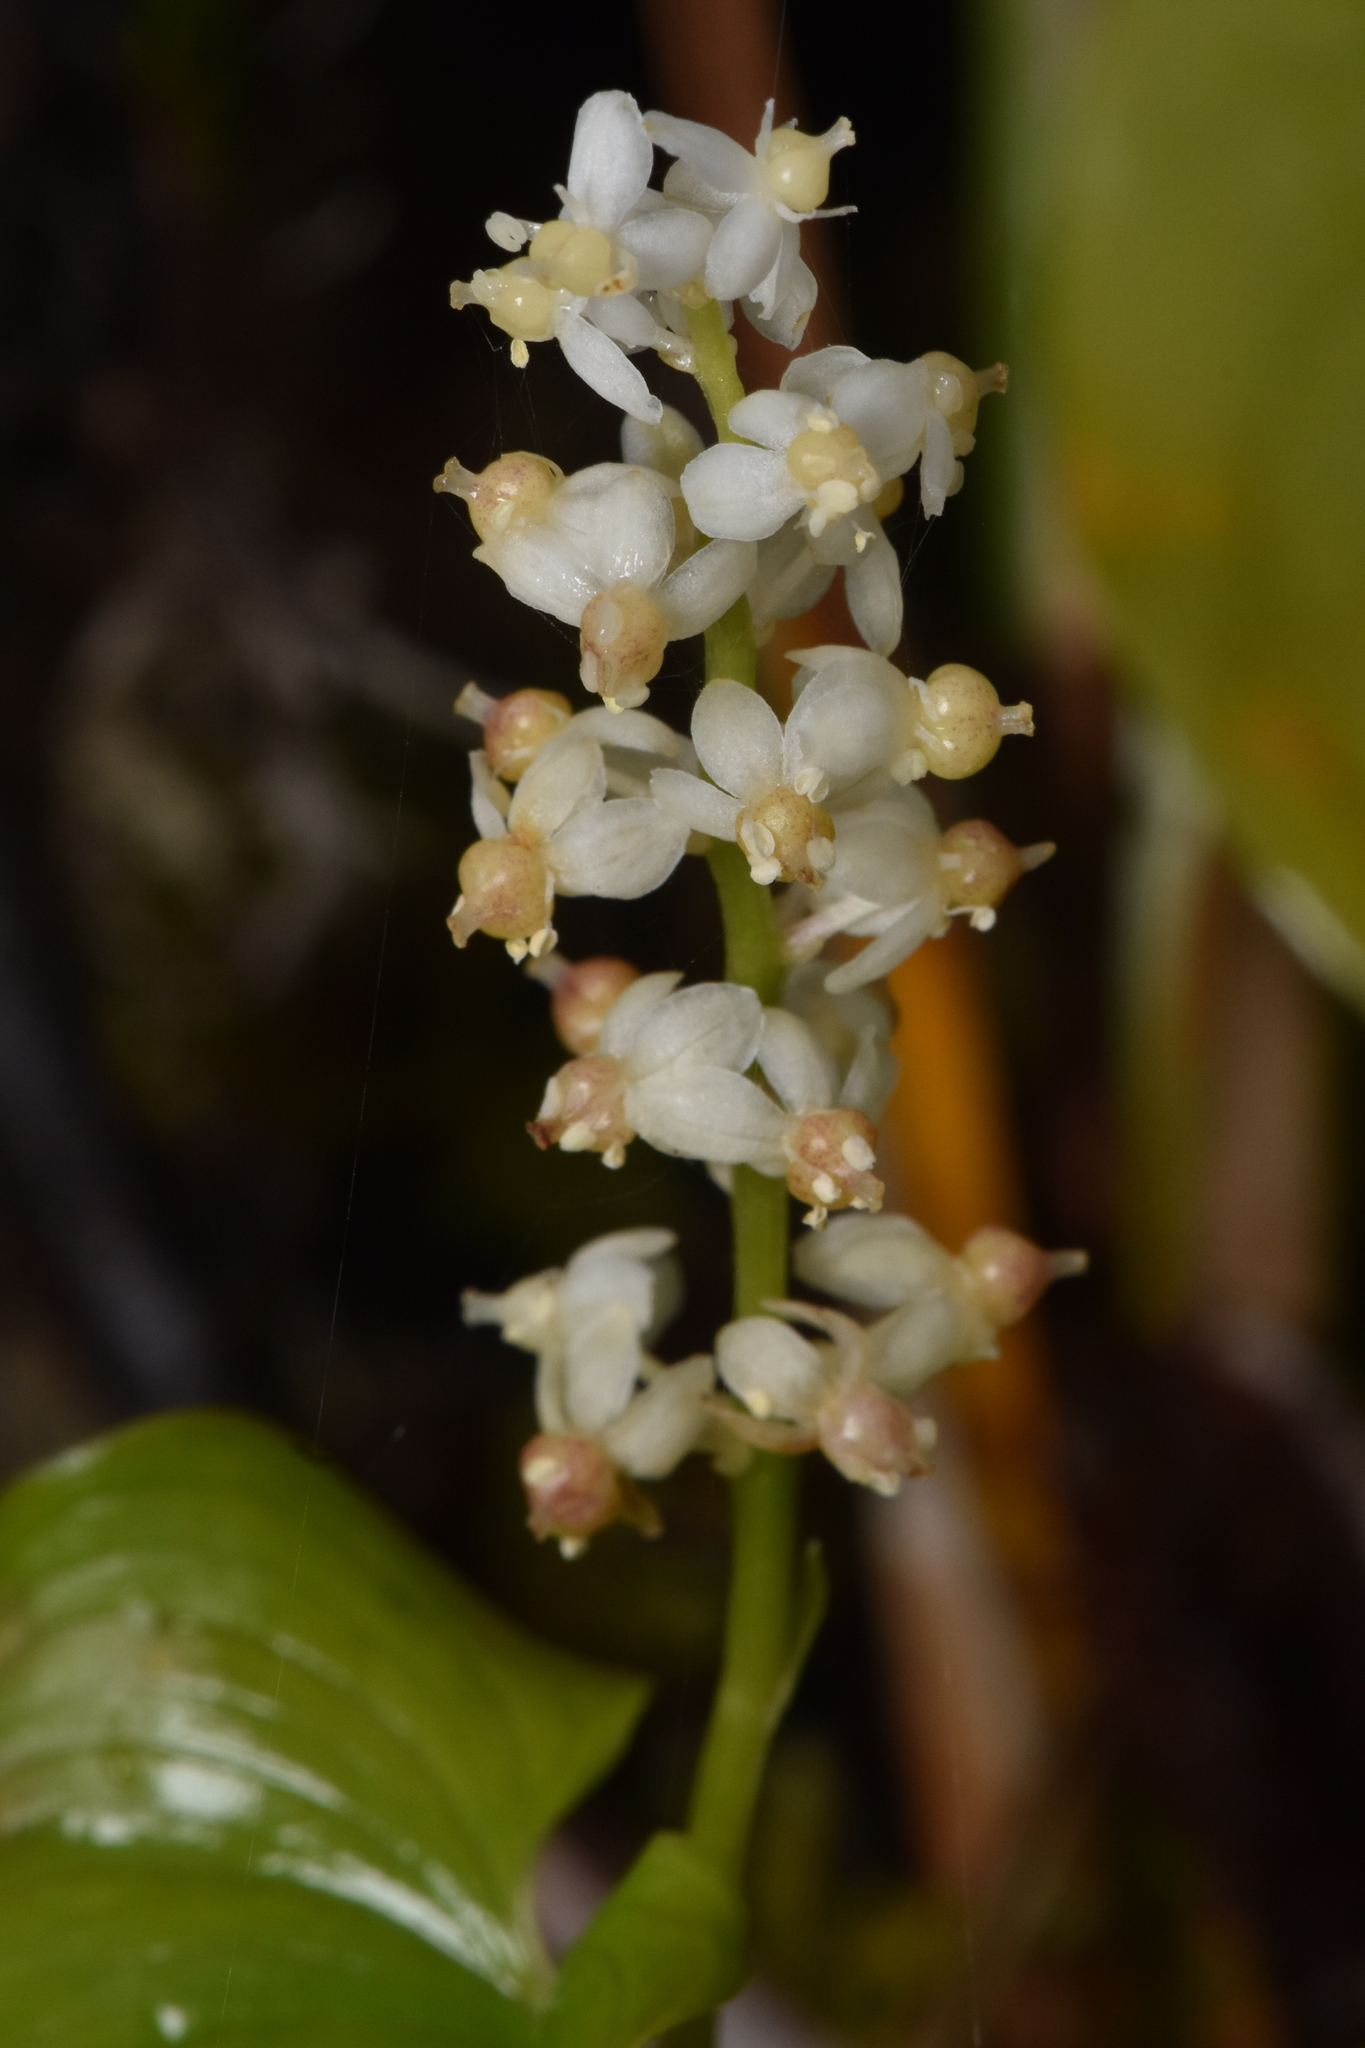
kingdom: Plantae
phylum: Tracheophyta
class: Liliopsida
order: Asparagales
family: Asparagaceae
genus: Maianthemum
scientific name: Maianthemum dilatatum
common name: False lily-of-the-valley
